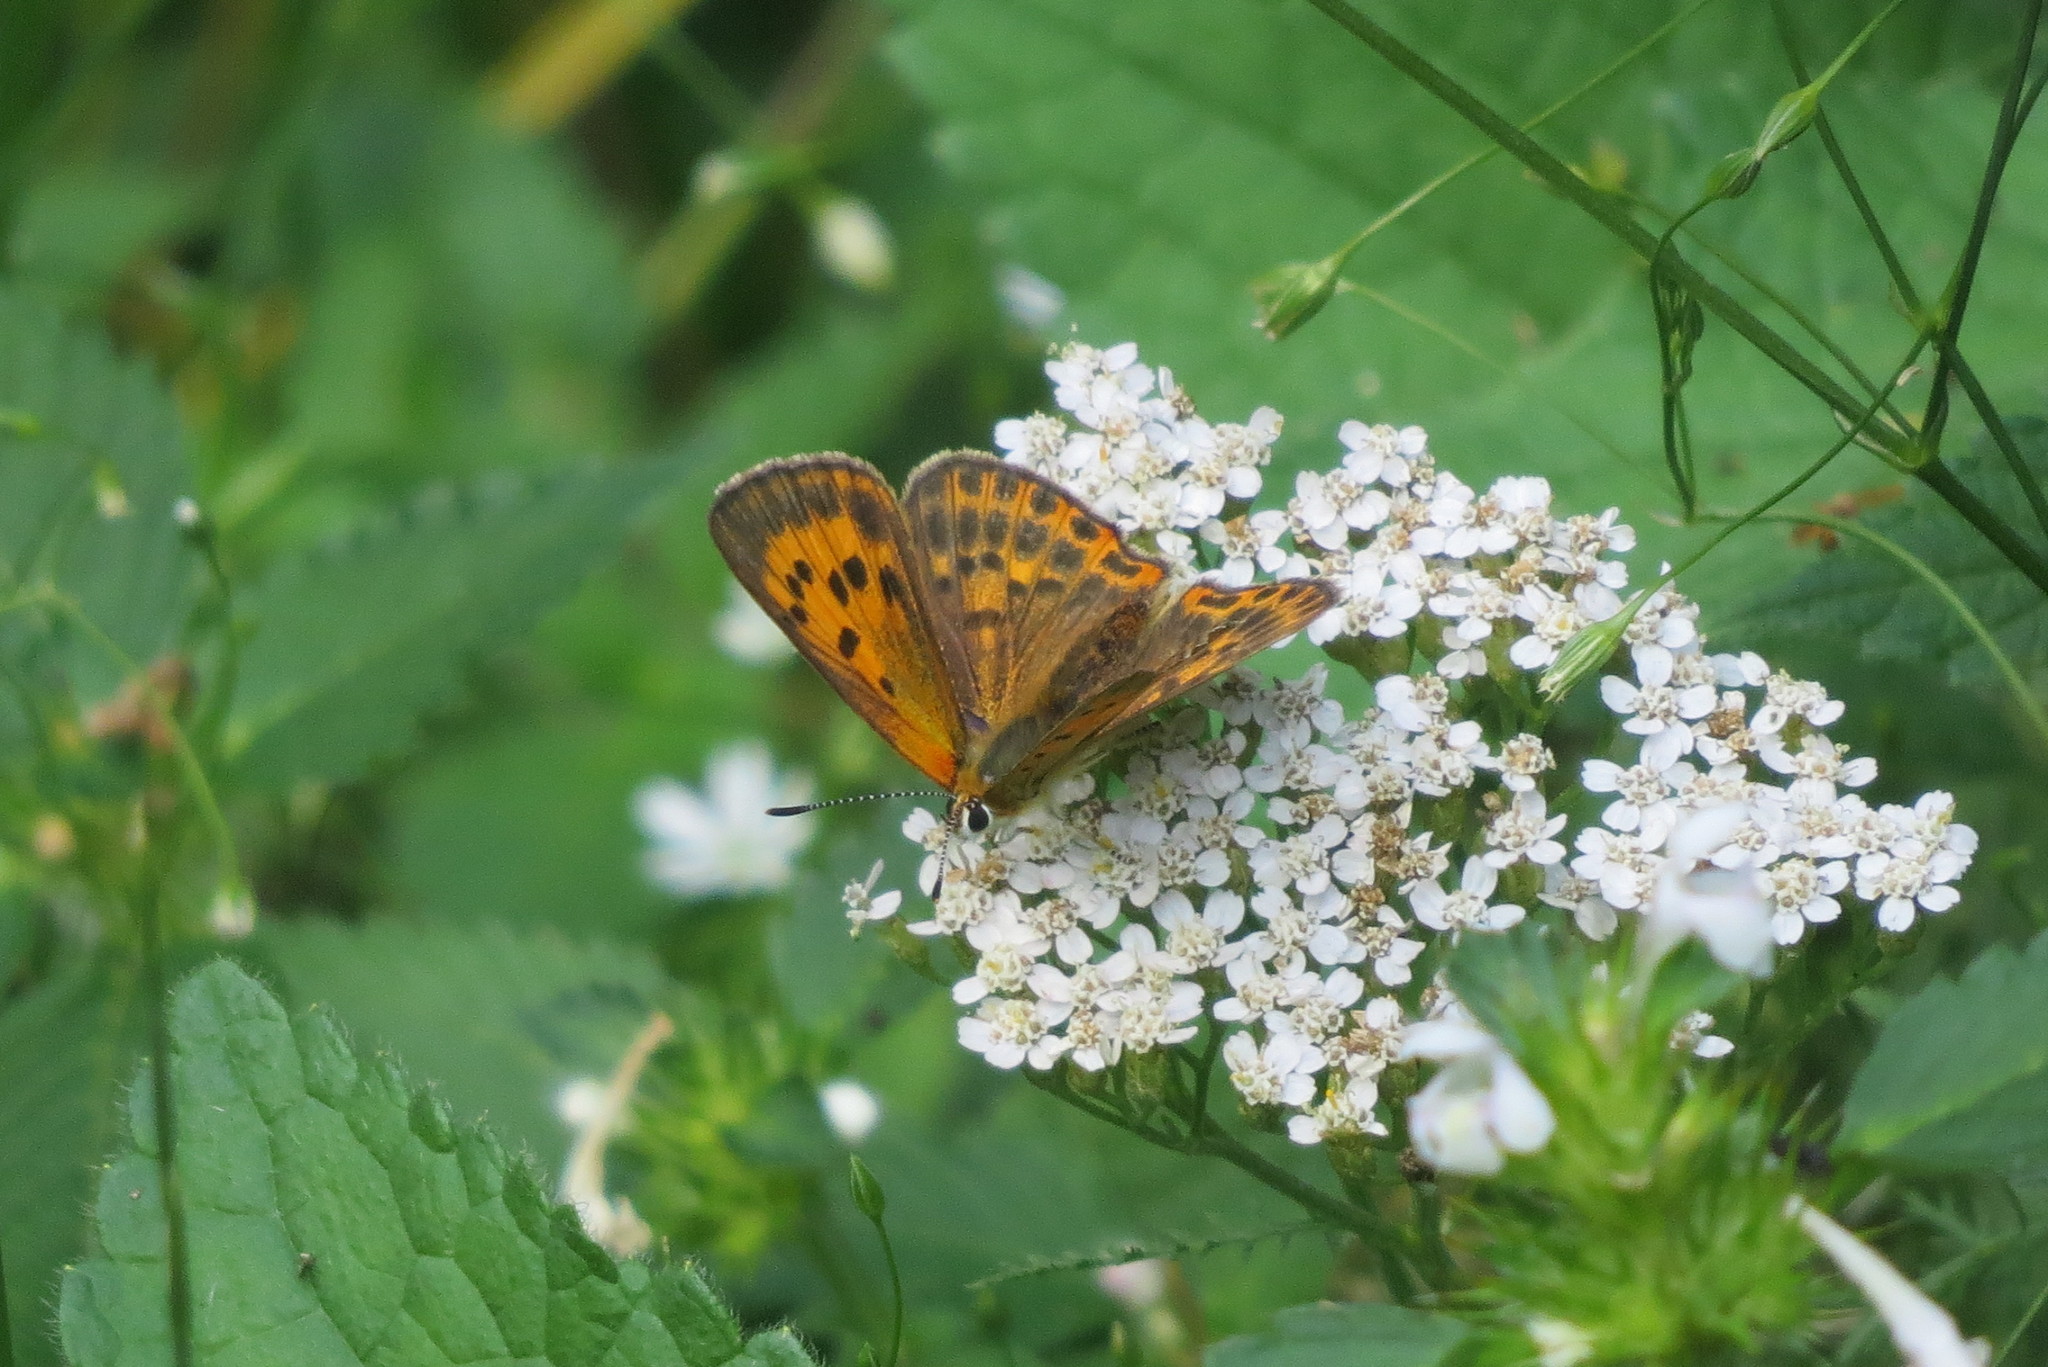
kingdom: Animalia
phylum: Arthropoda
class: Insecta
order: Lepidoptera
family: Lycaenidae
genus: Lycaena
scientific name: Lycaena virgaureae
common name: Scarce copper
